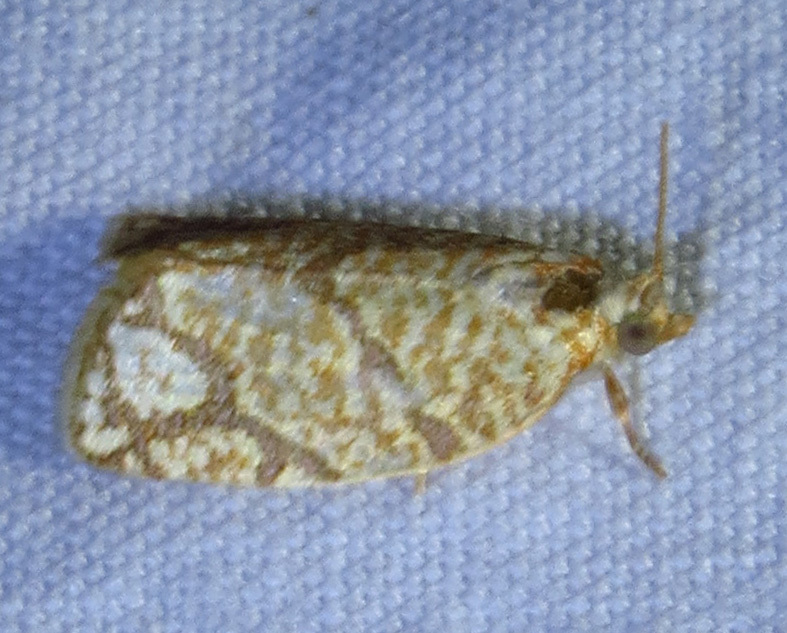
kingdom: Animalia
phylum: Arthropoda
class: Insecta
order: Lepidoptera
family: Tortricidae
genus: Argyrotaenia
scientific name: Argyrotaenia quercifoliana
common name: Yellow-winged oak leafroller moth
